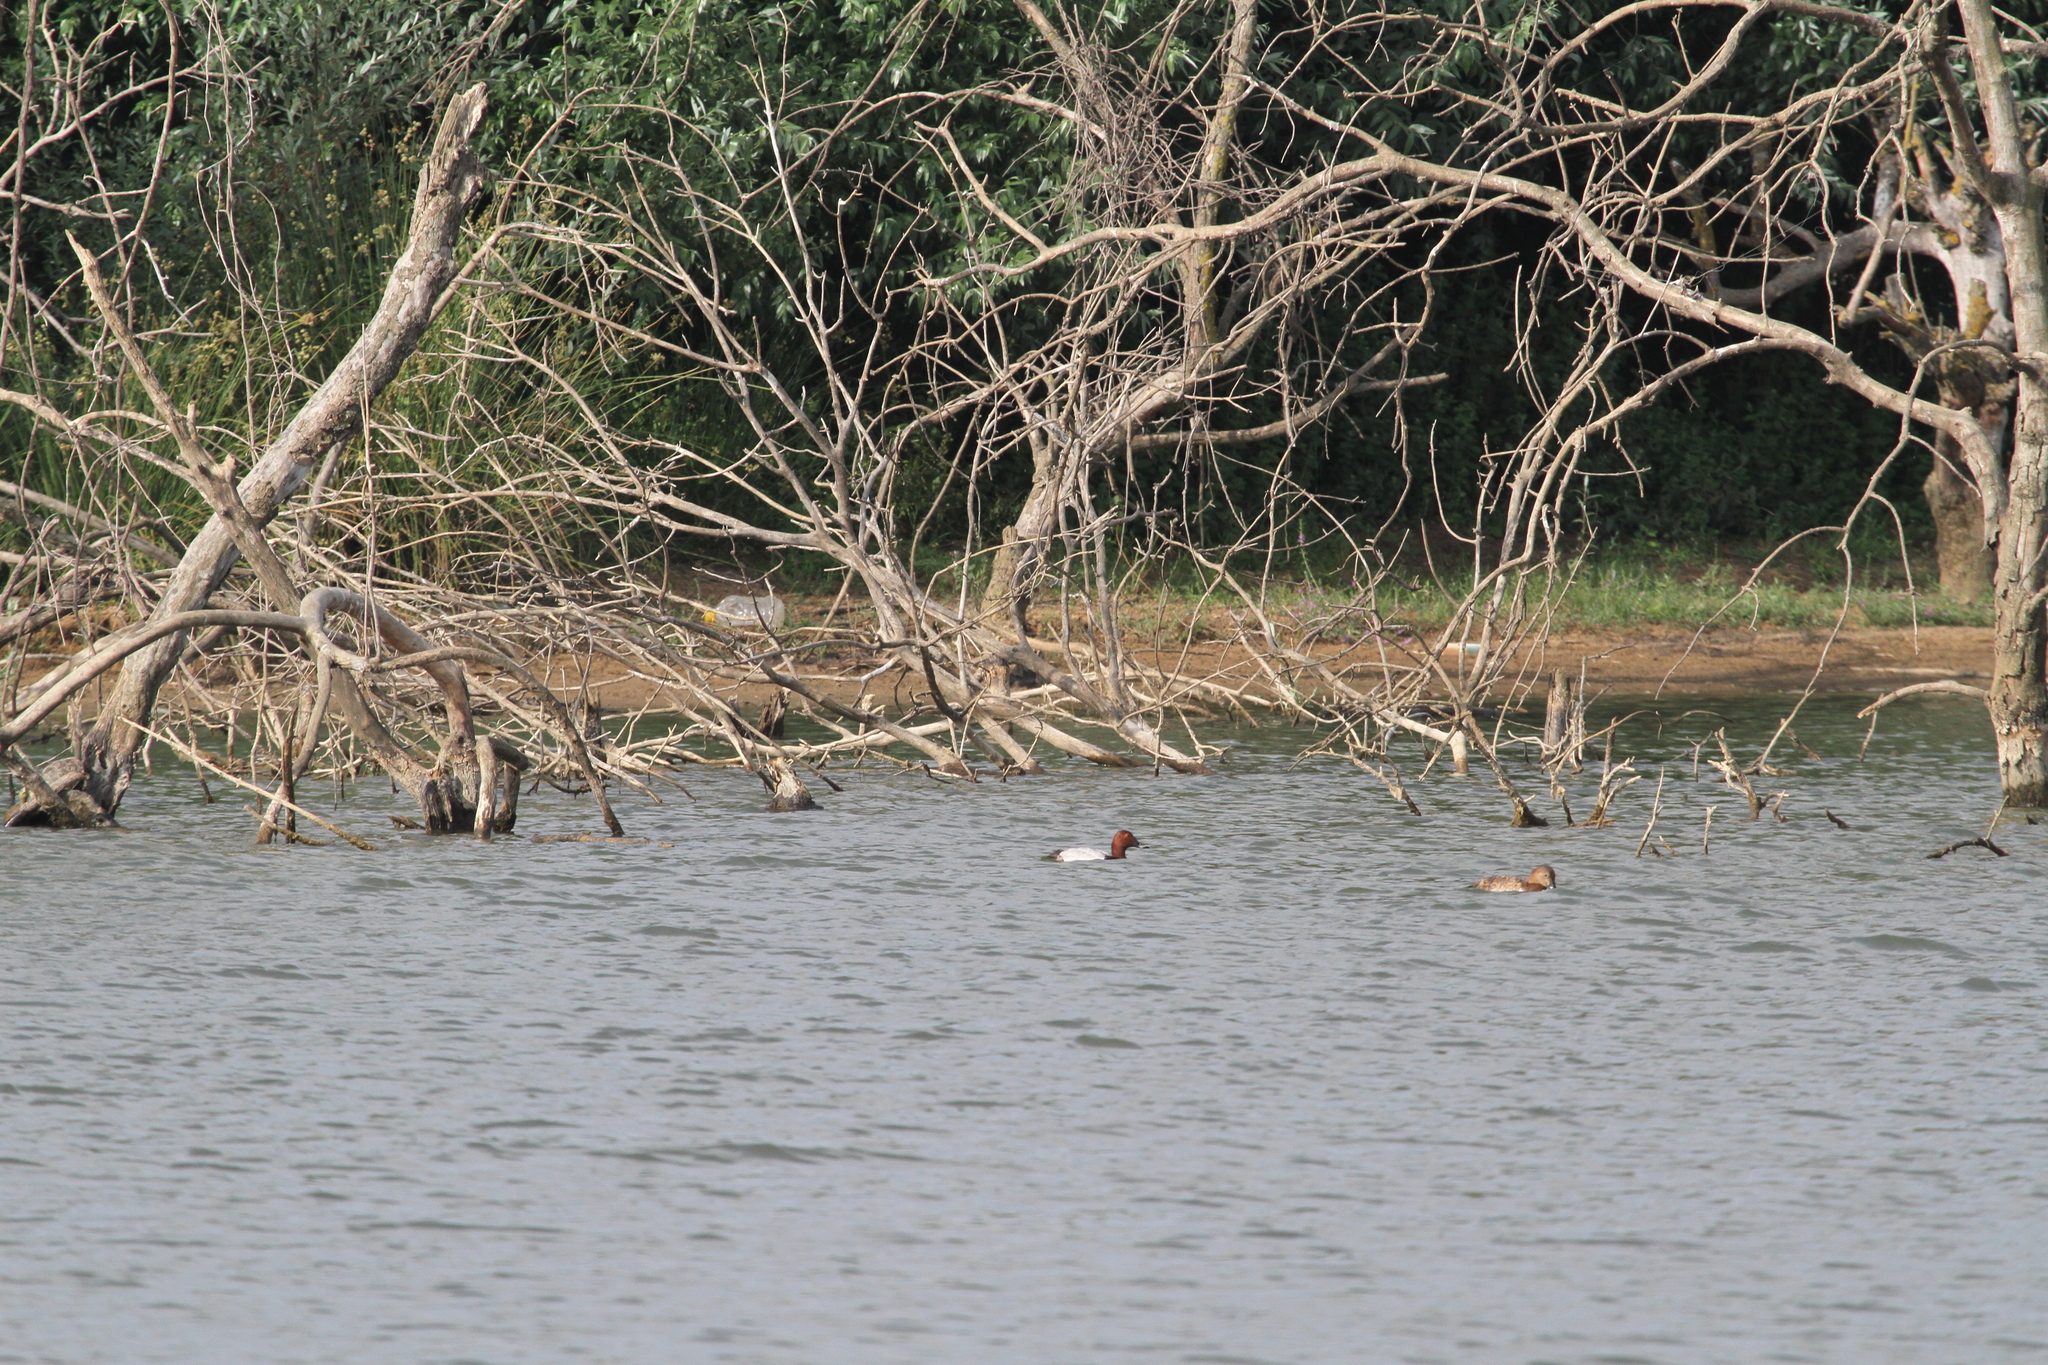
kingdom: Animalia
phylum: Chordata
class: Aves
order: Anseriformes
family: Anatidae
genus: Aythya
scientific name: Aythya ferina
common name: Common pochard
